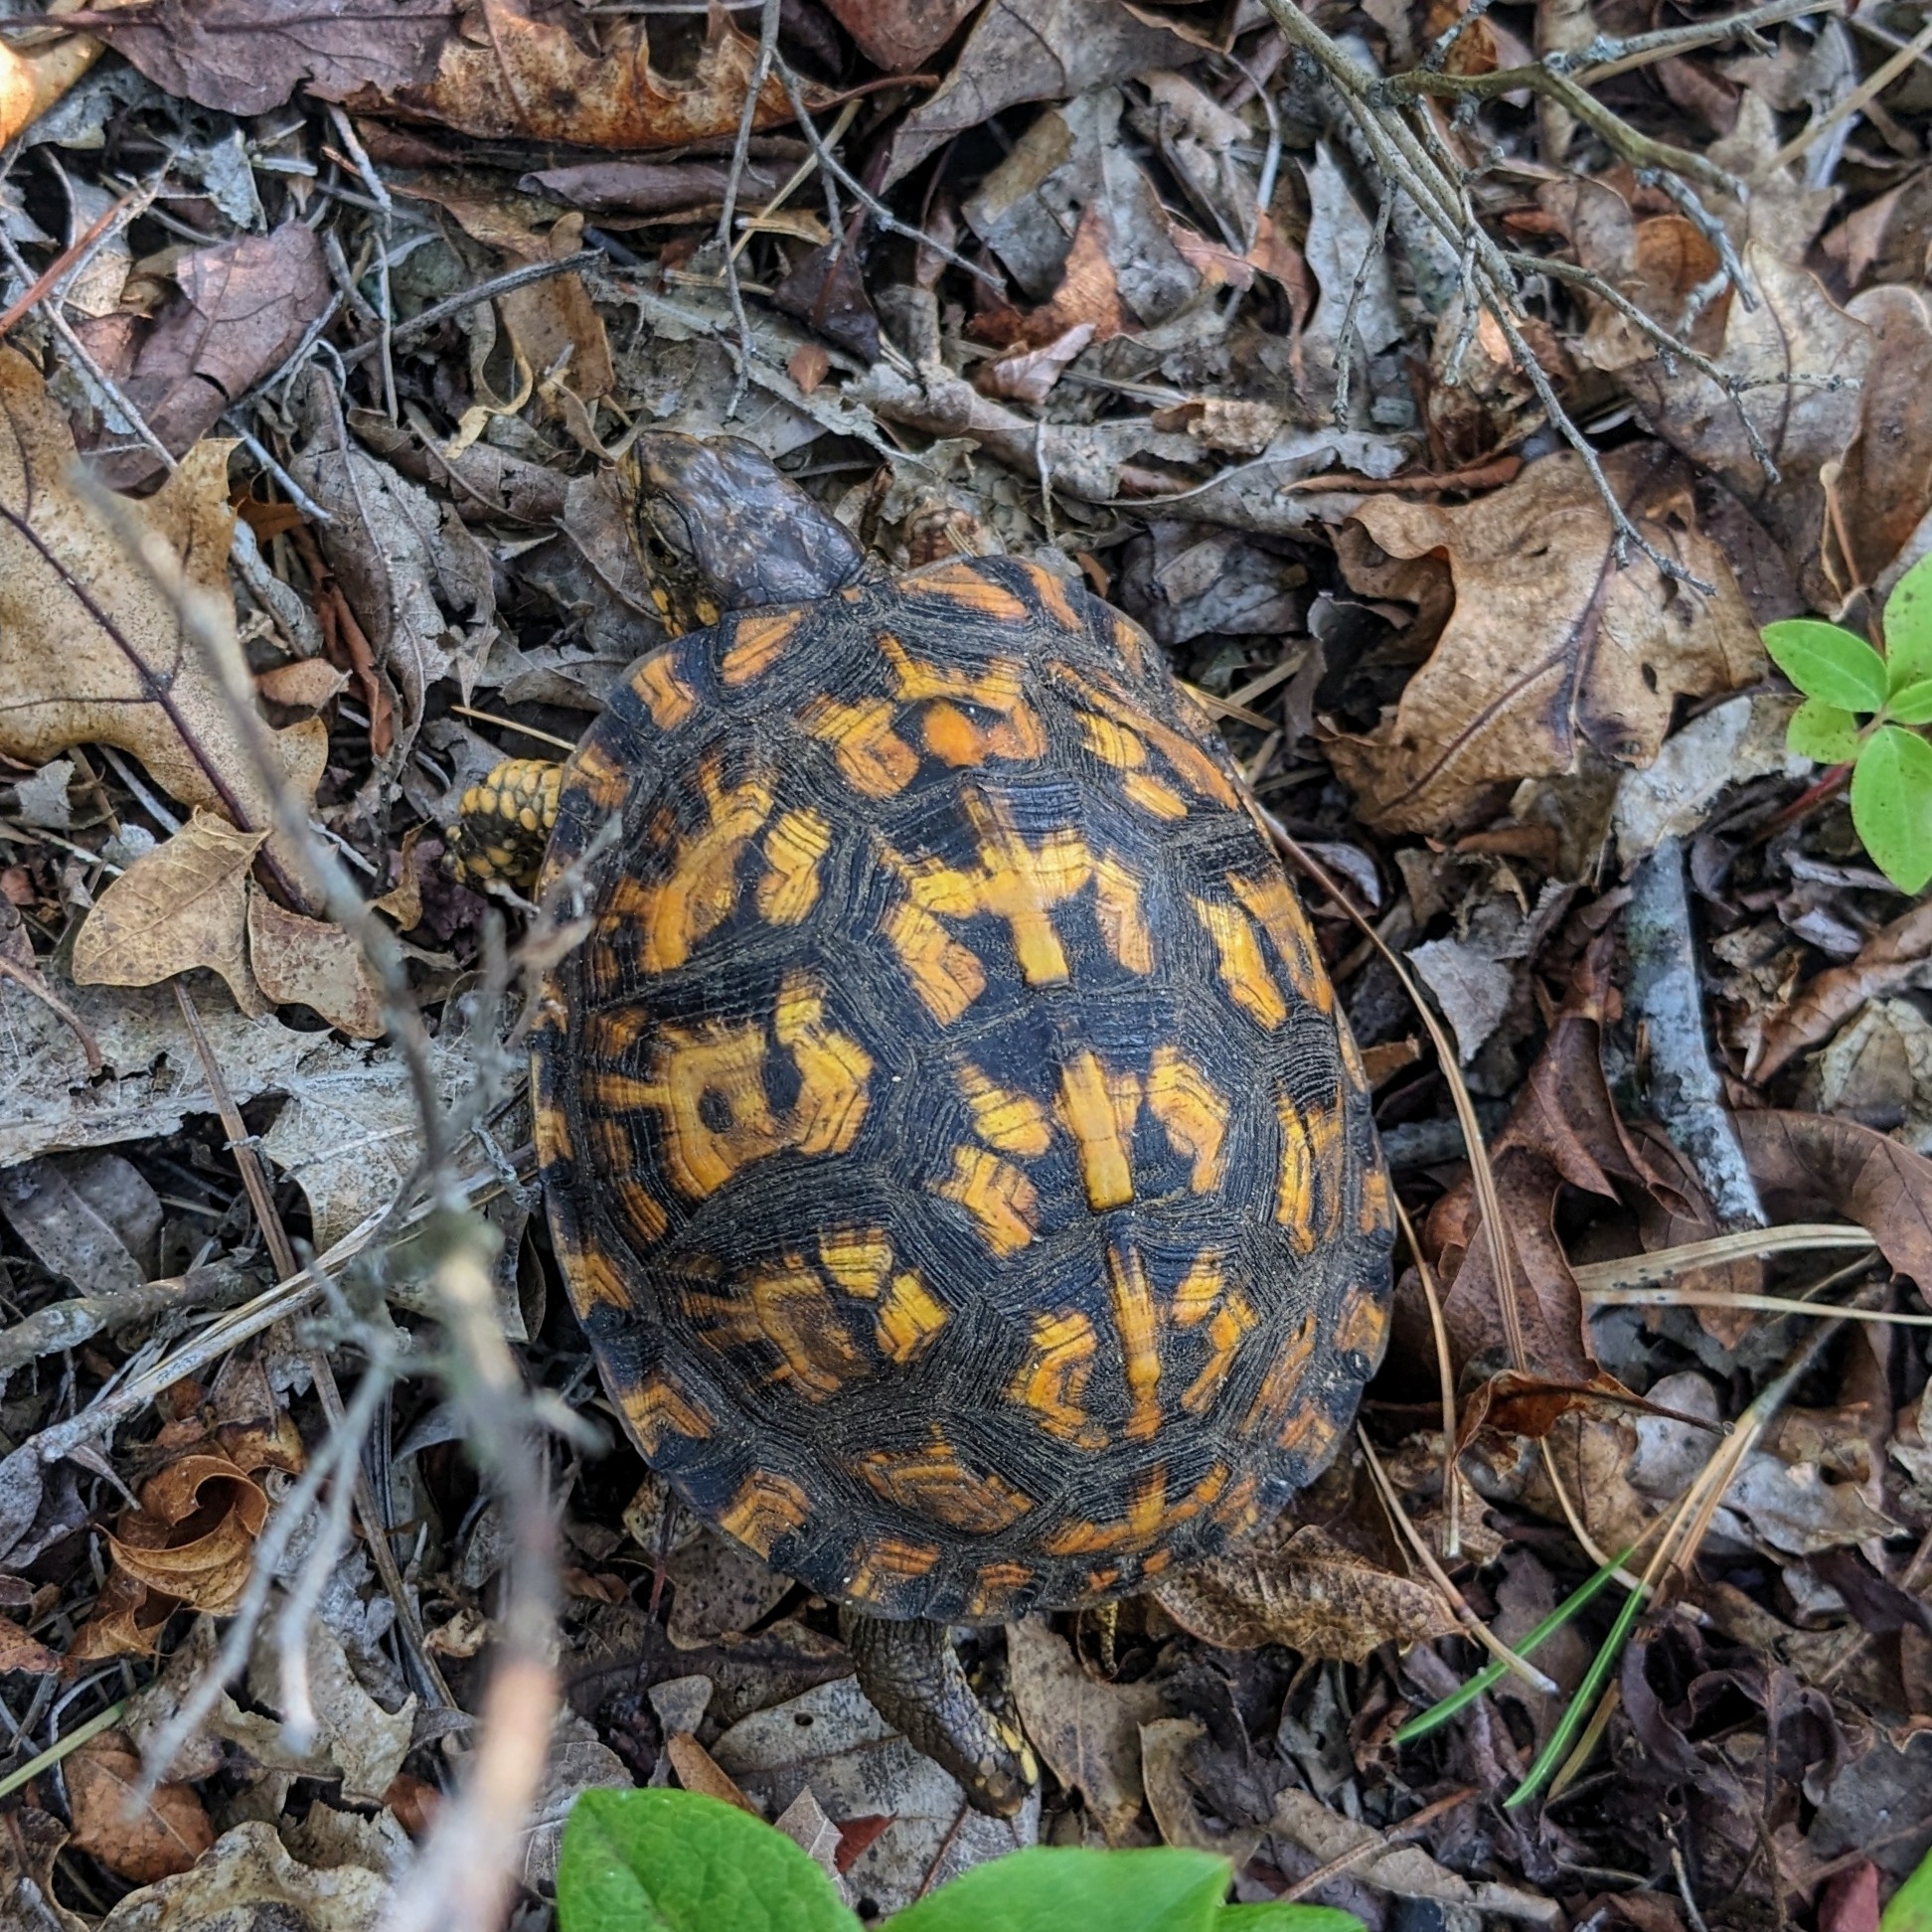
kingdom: Animalia
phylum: Chordata
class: Testudines
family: Emydidae
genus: Terrapene
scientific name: Terrapene carolina
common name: Common box turtle
